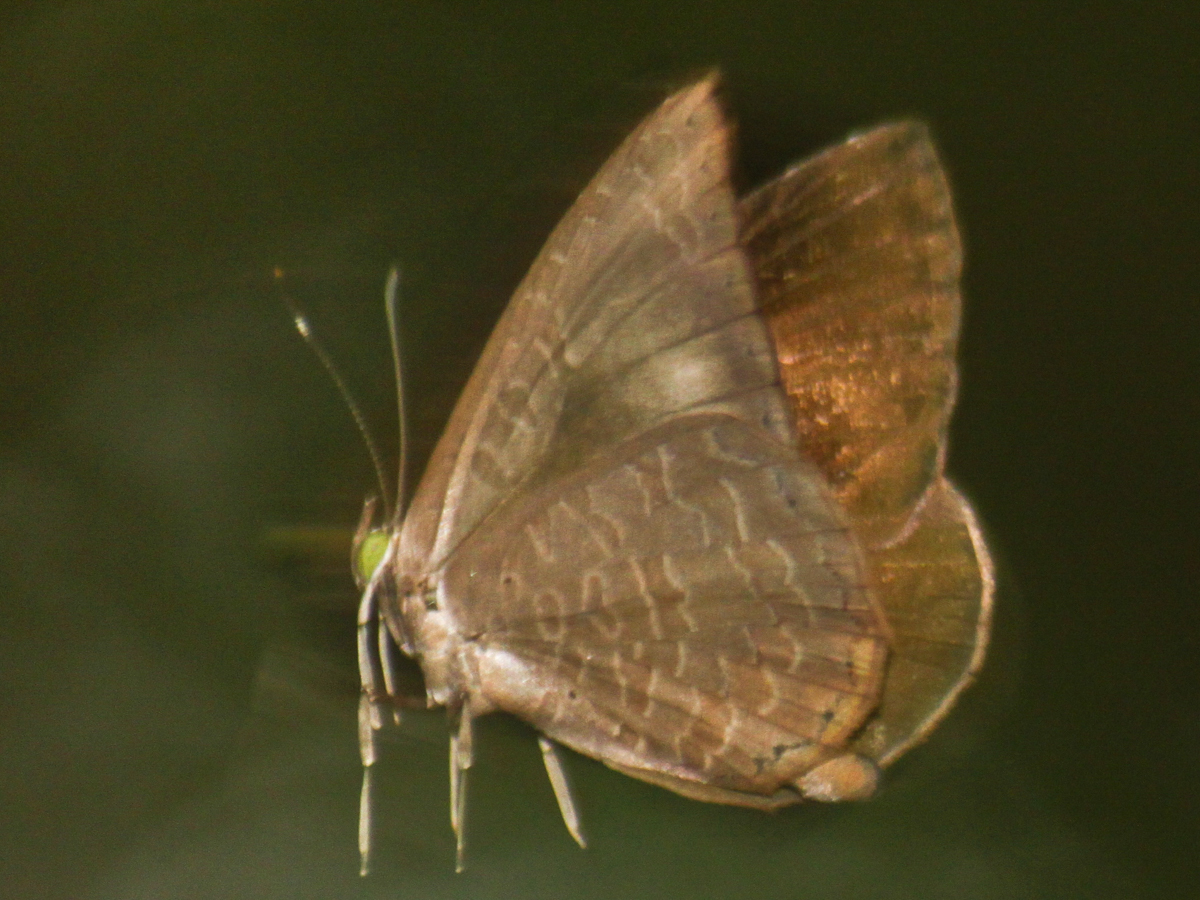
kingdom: Animalia
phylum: Arthropoda
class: Insecta
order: Lepidoptera
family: Lycaenidae
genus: Miletus
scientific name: Miletus chinensis
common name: Common brownie
